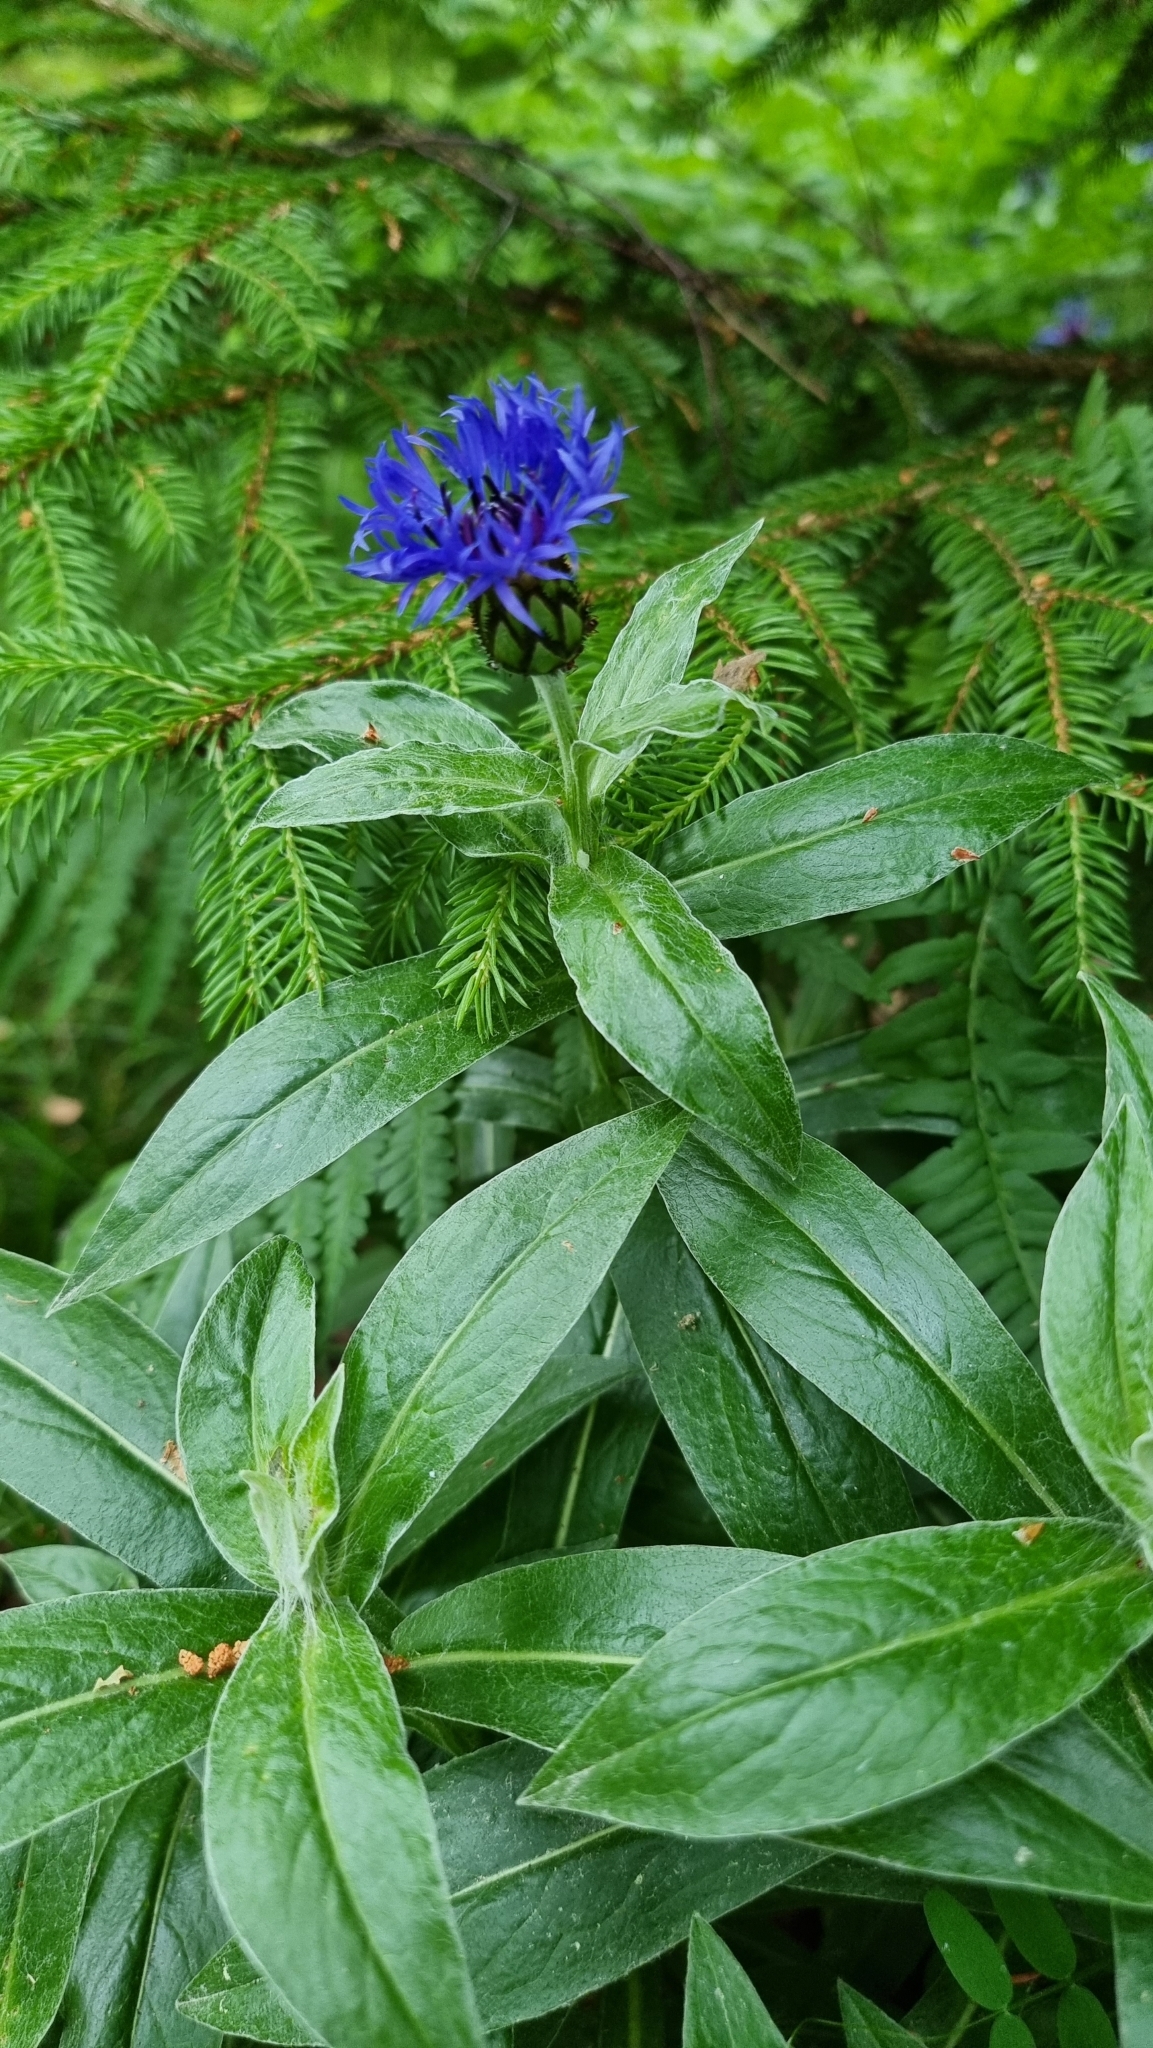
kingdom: Plantae
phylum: Tracheophyta
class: Magnoliopsida
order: Asterales
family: Asteraceae
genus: Centaurea
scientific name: Centaurea montana
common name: Perennial cornflower
